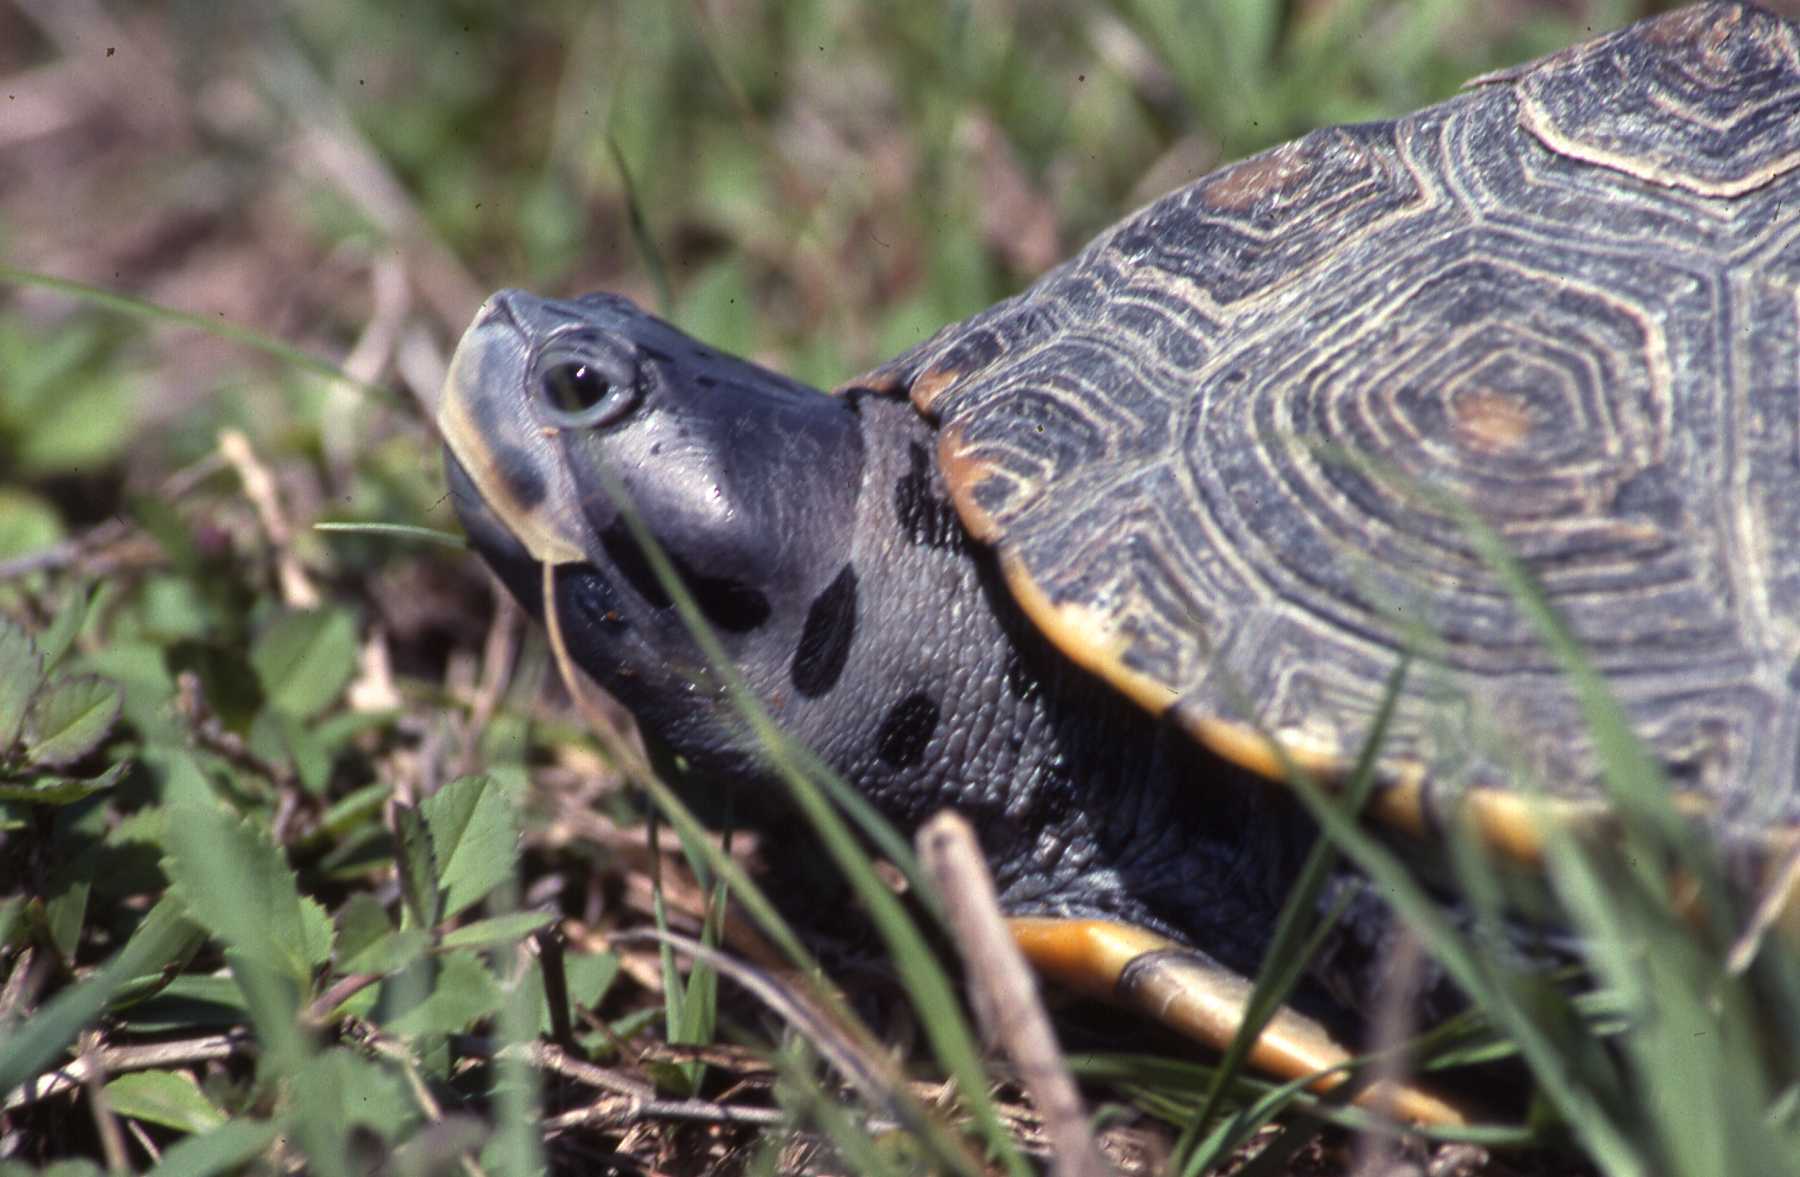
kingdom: Animalia
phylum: Chordata
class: Testudines
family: Emydidae
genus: Malaclemys
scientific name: Malaclemys terrapin
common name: Diamondback terrapin
